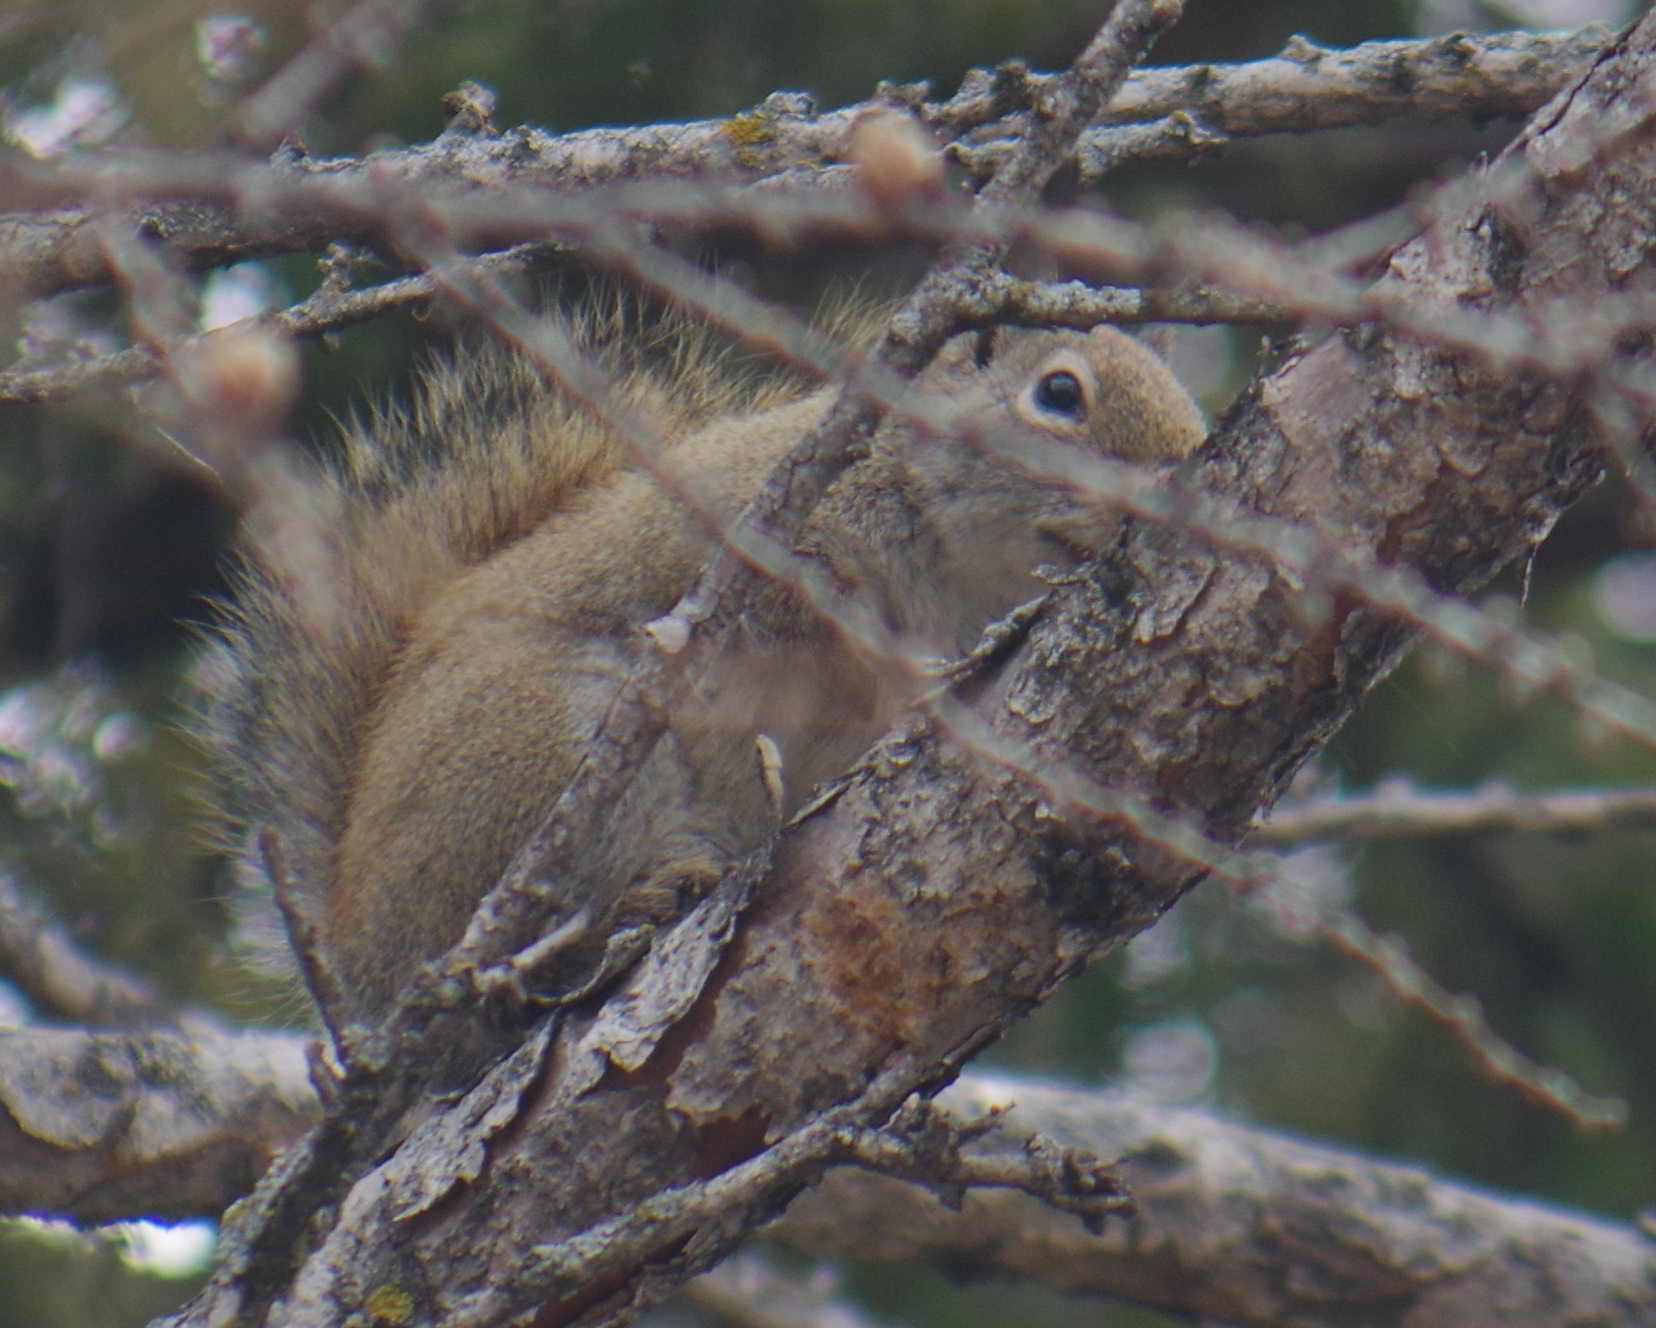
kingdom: Animalia
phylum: Chordata
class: Mammalia
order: Rodentia
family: Sciuridae
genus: Tamiasciurus
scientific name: Tamiasciurus hudsonicus
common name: Red squirrel
